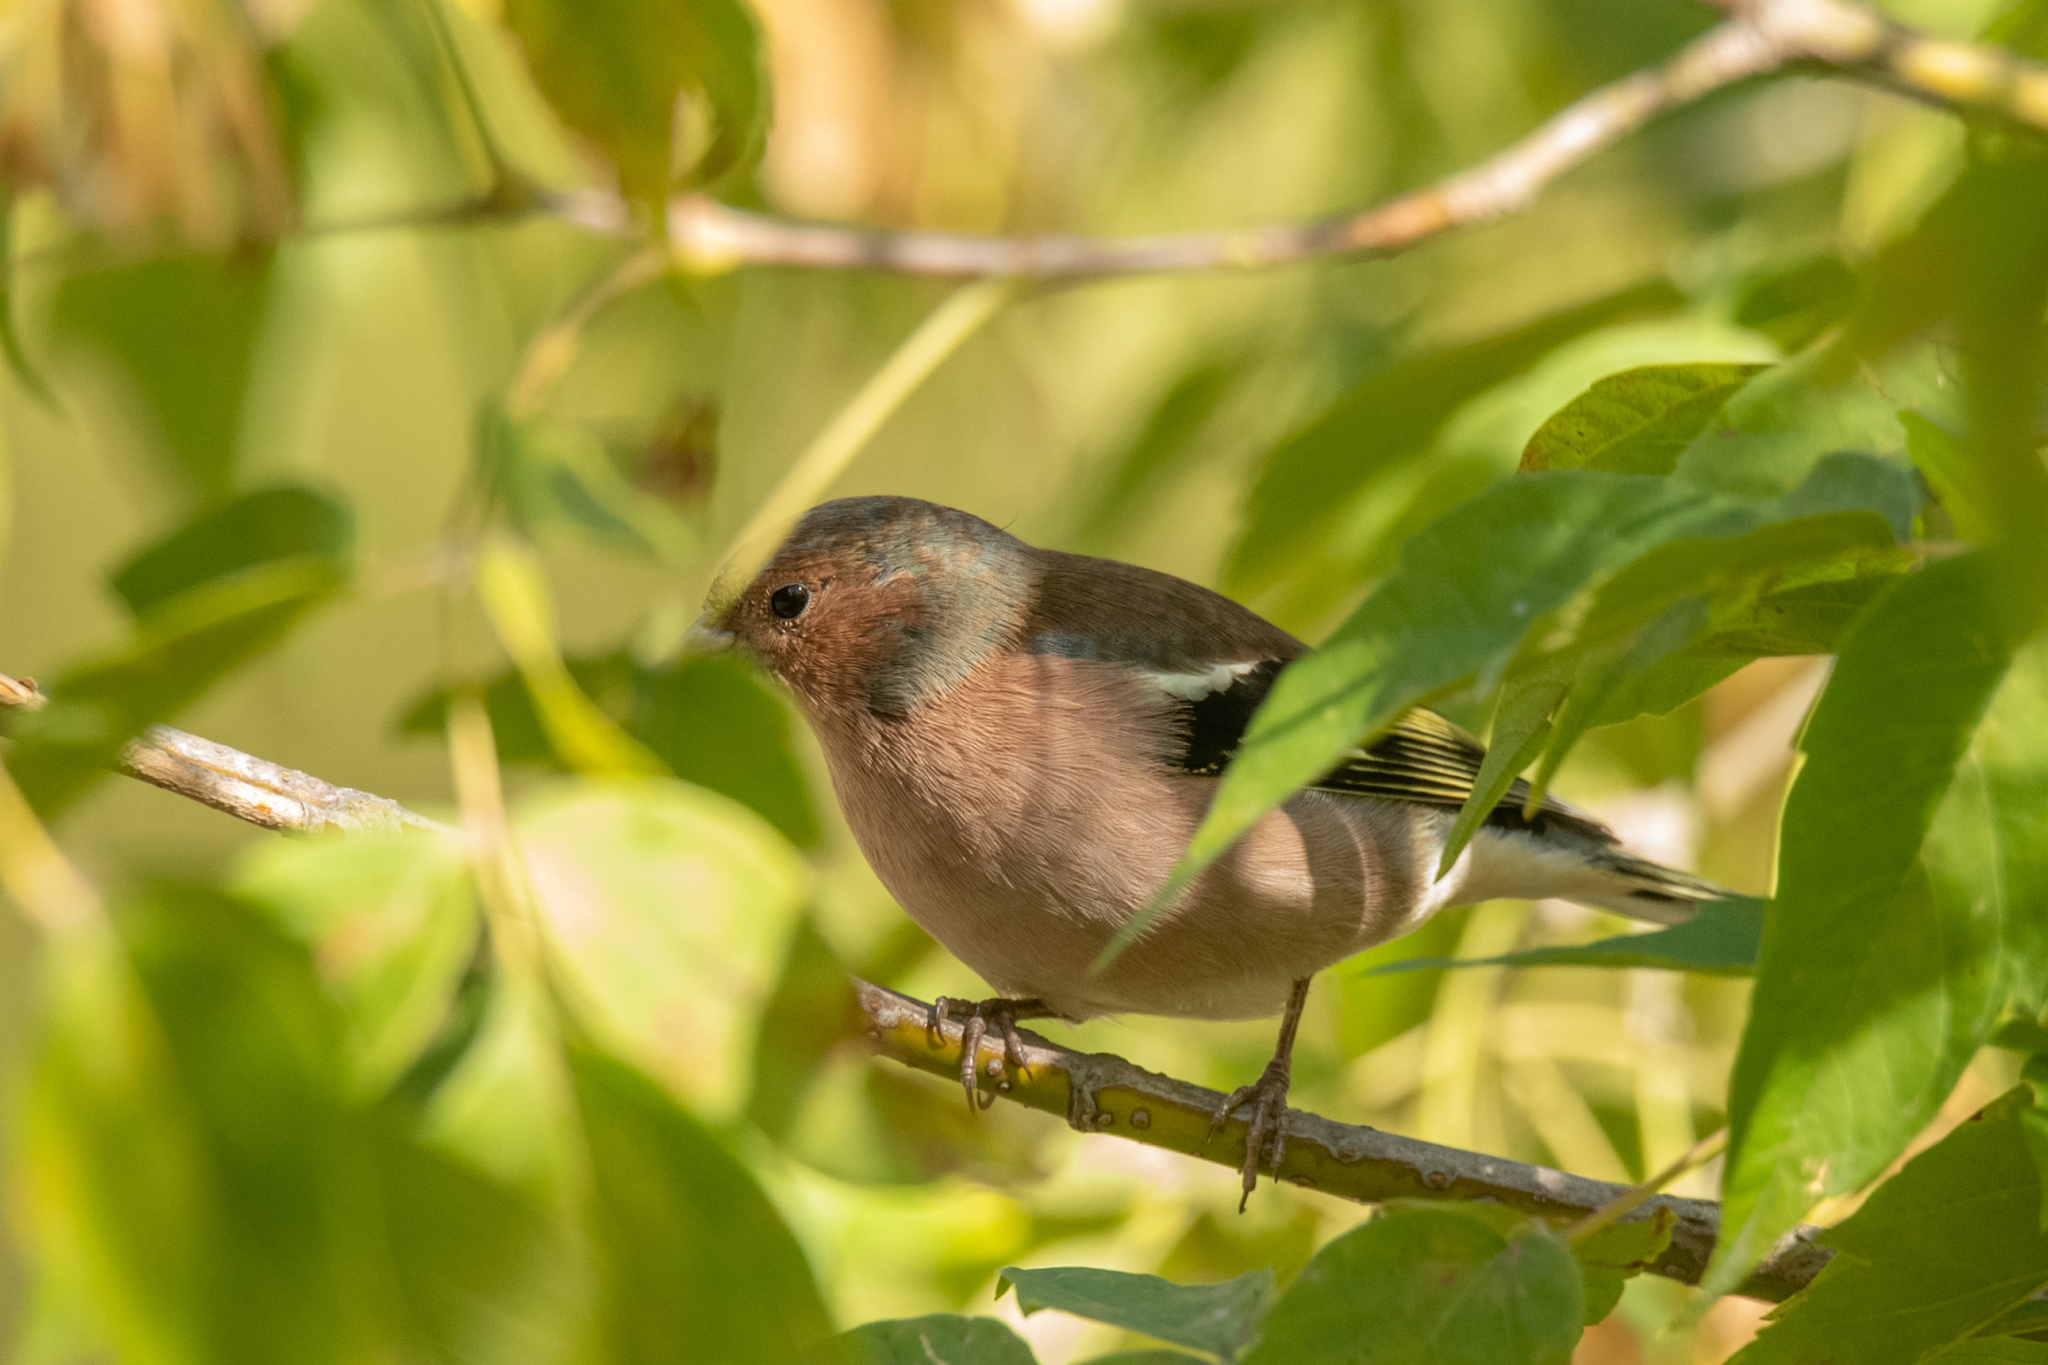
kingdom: Animalia
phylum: Chordata
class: Aves
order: Passeriformes
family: Fringillidae
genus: Fringilla
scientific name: Fringilla coelebs
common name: Common chaffinch
